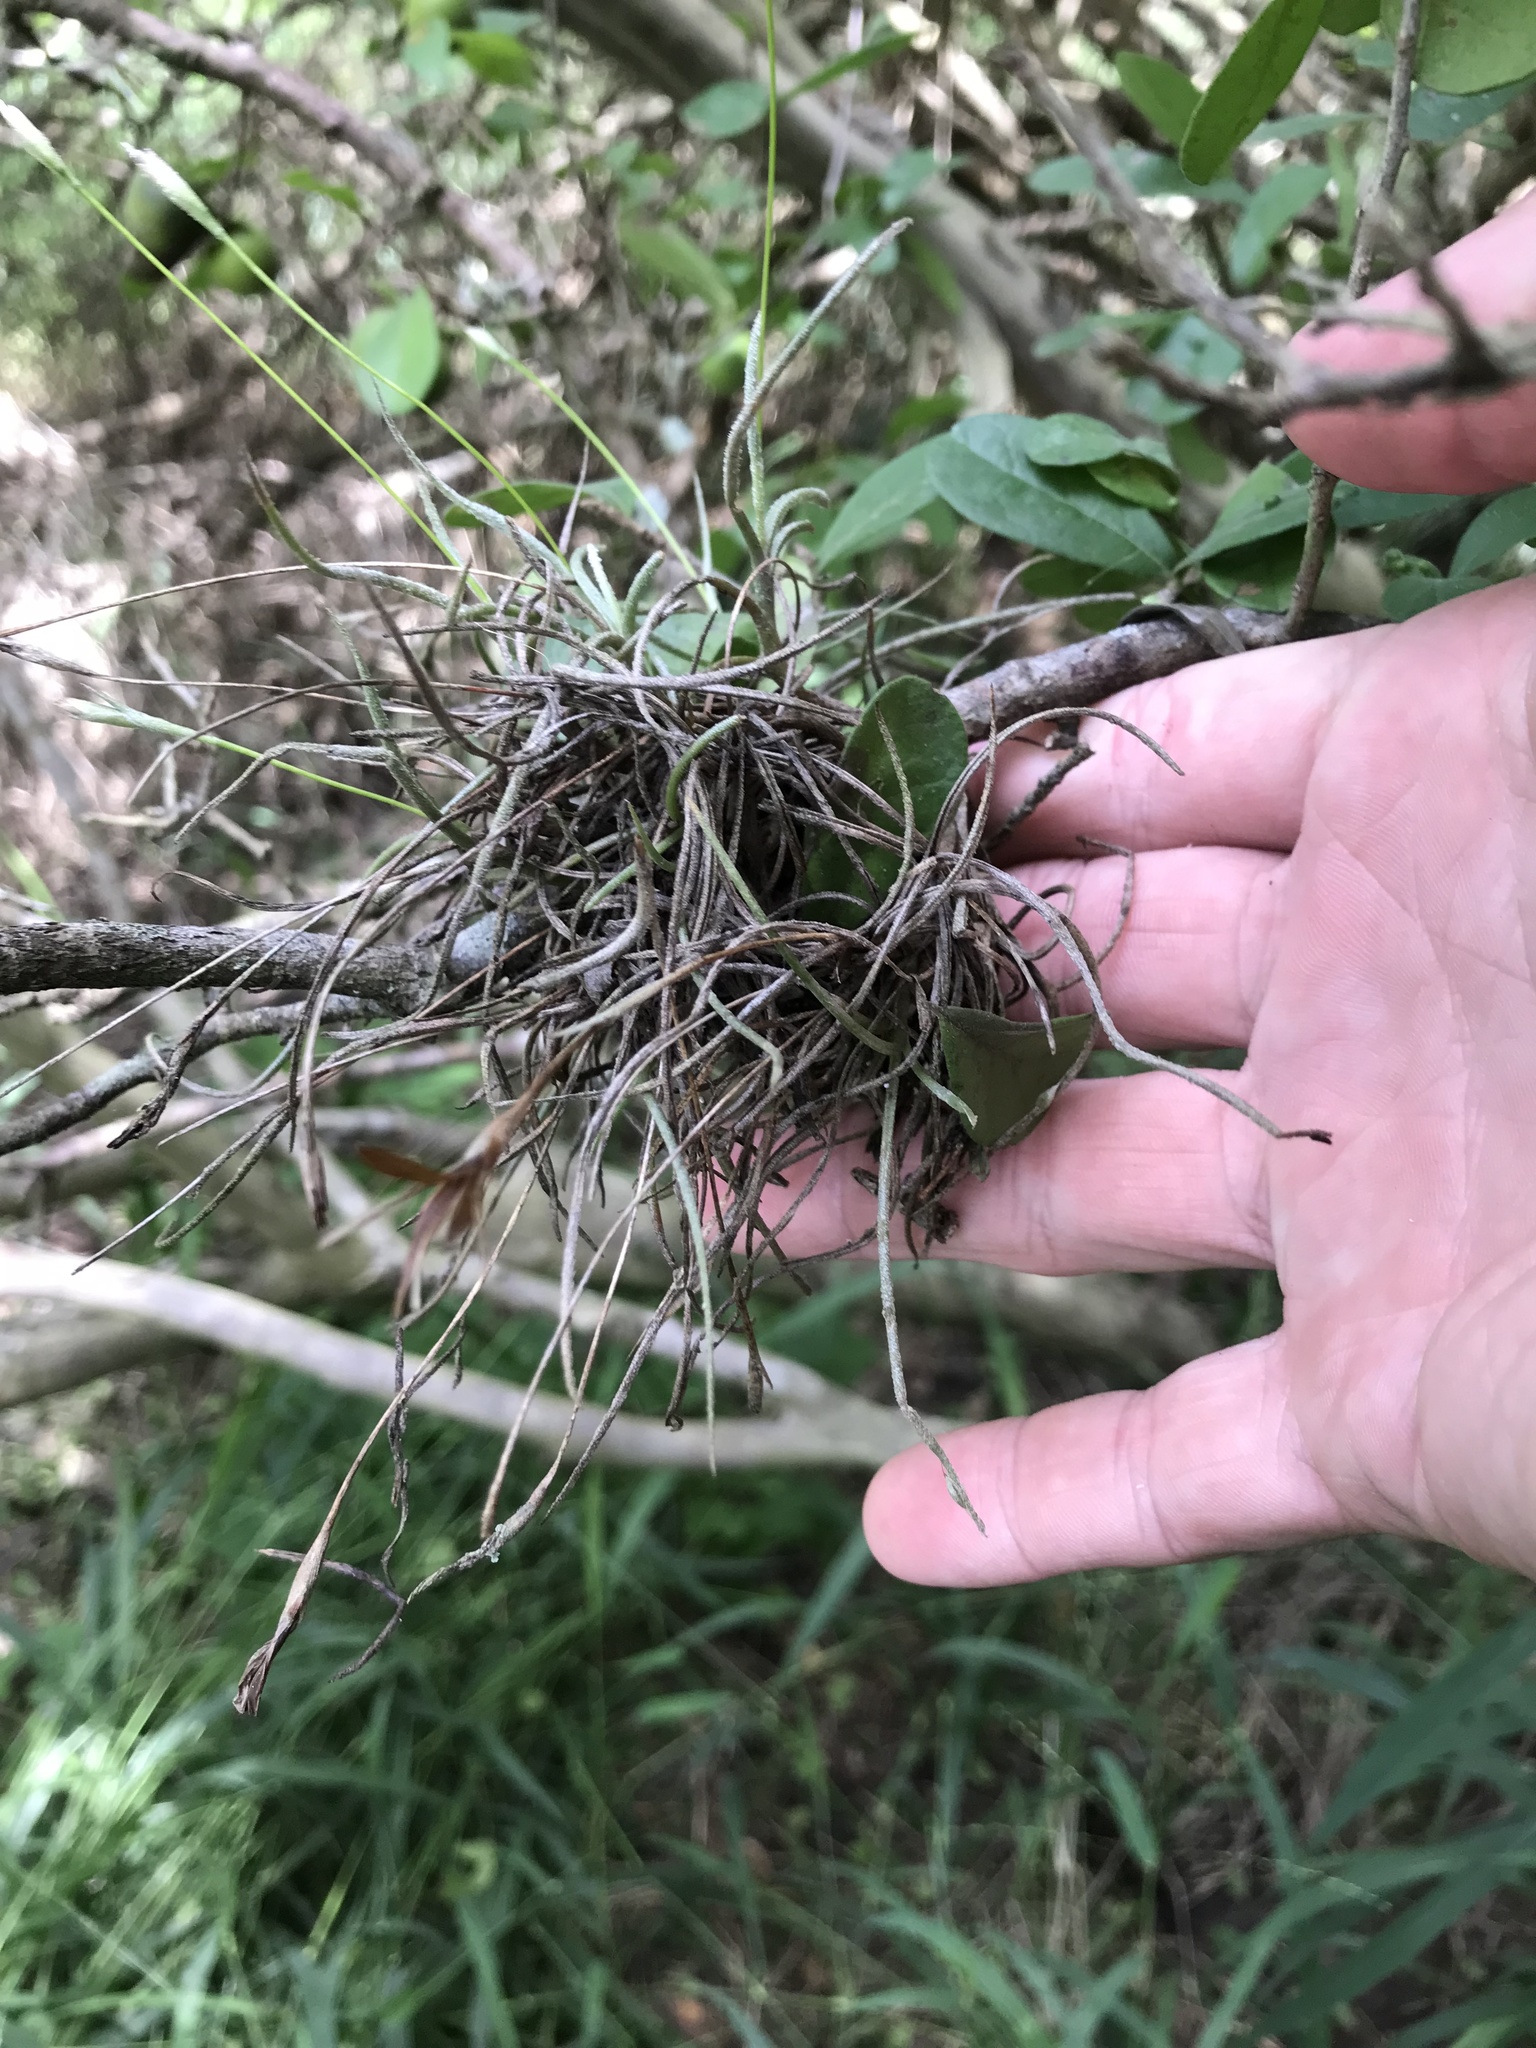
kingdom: Plantae
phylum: Tracheophyta
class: Liliopsida
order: Poales
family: Bromeliaceae
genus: Tillandsia
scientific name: Tillandsia recurvata
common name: Small ballmoss
